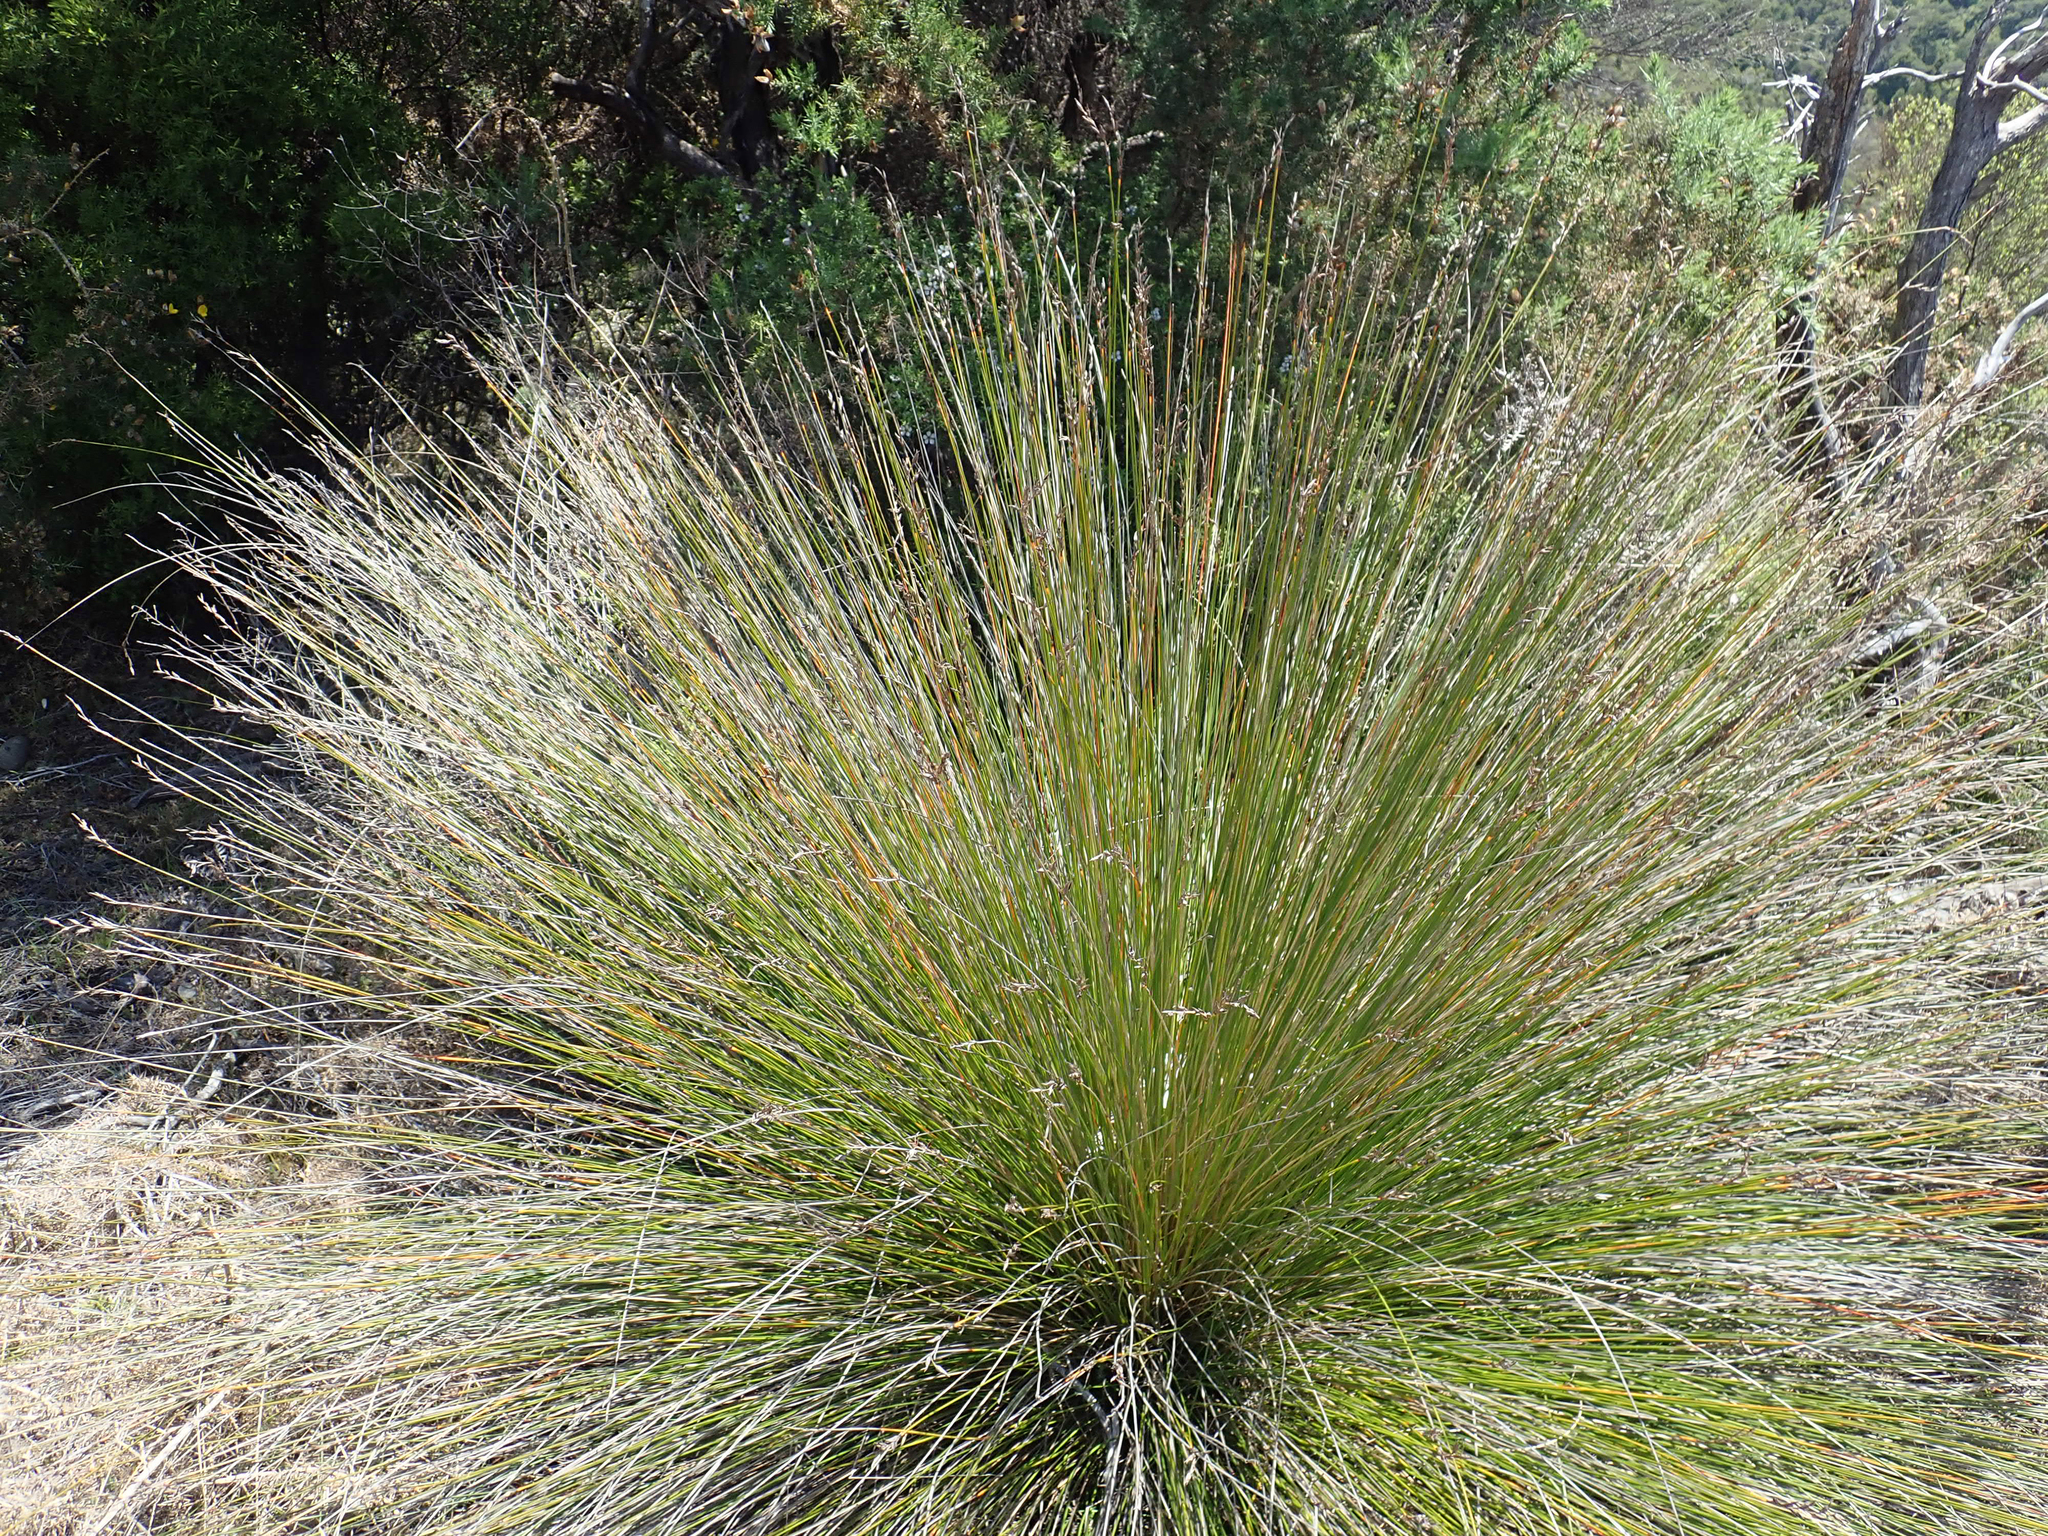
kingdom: Plantae
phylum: Tracheophyta
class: Liliopsida
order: Poales
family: Cyperaceae
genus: Lepidosperma
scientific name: Lepidosperma
